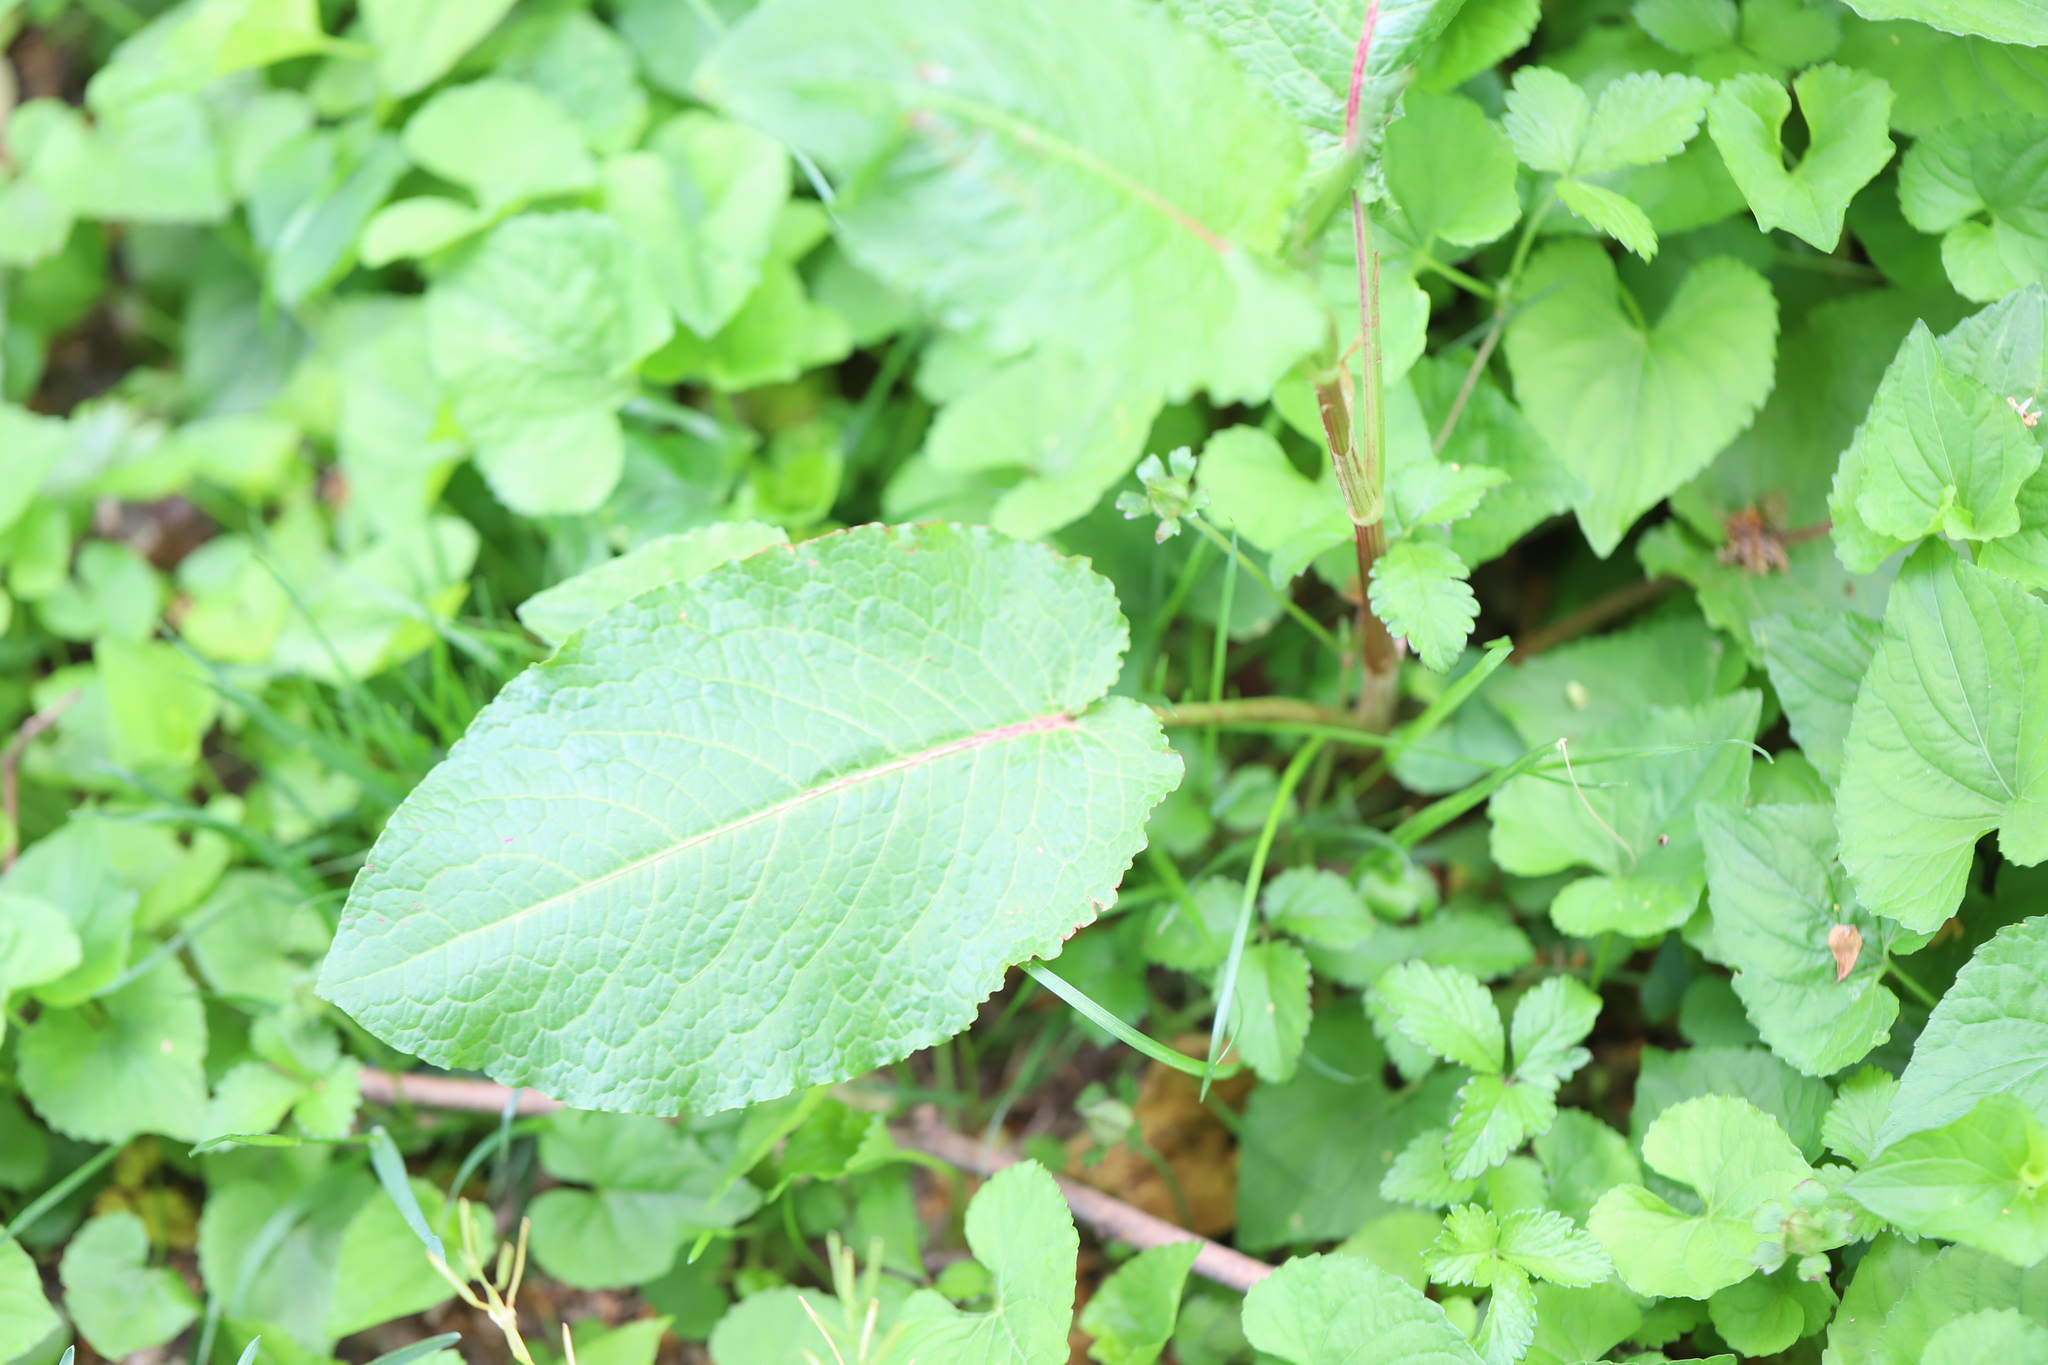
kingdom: Plantae
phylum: Tracheophyta
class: Magnoliopsida
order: Caryophyllales
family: Polygonaceae
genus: Rumex
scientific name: Rumex obtusifolius
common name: Bitter dock
